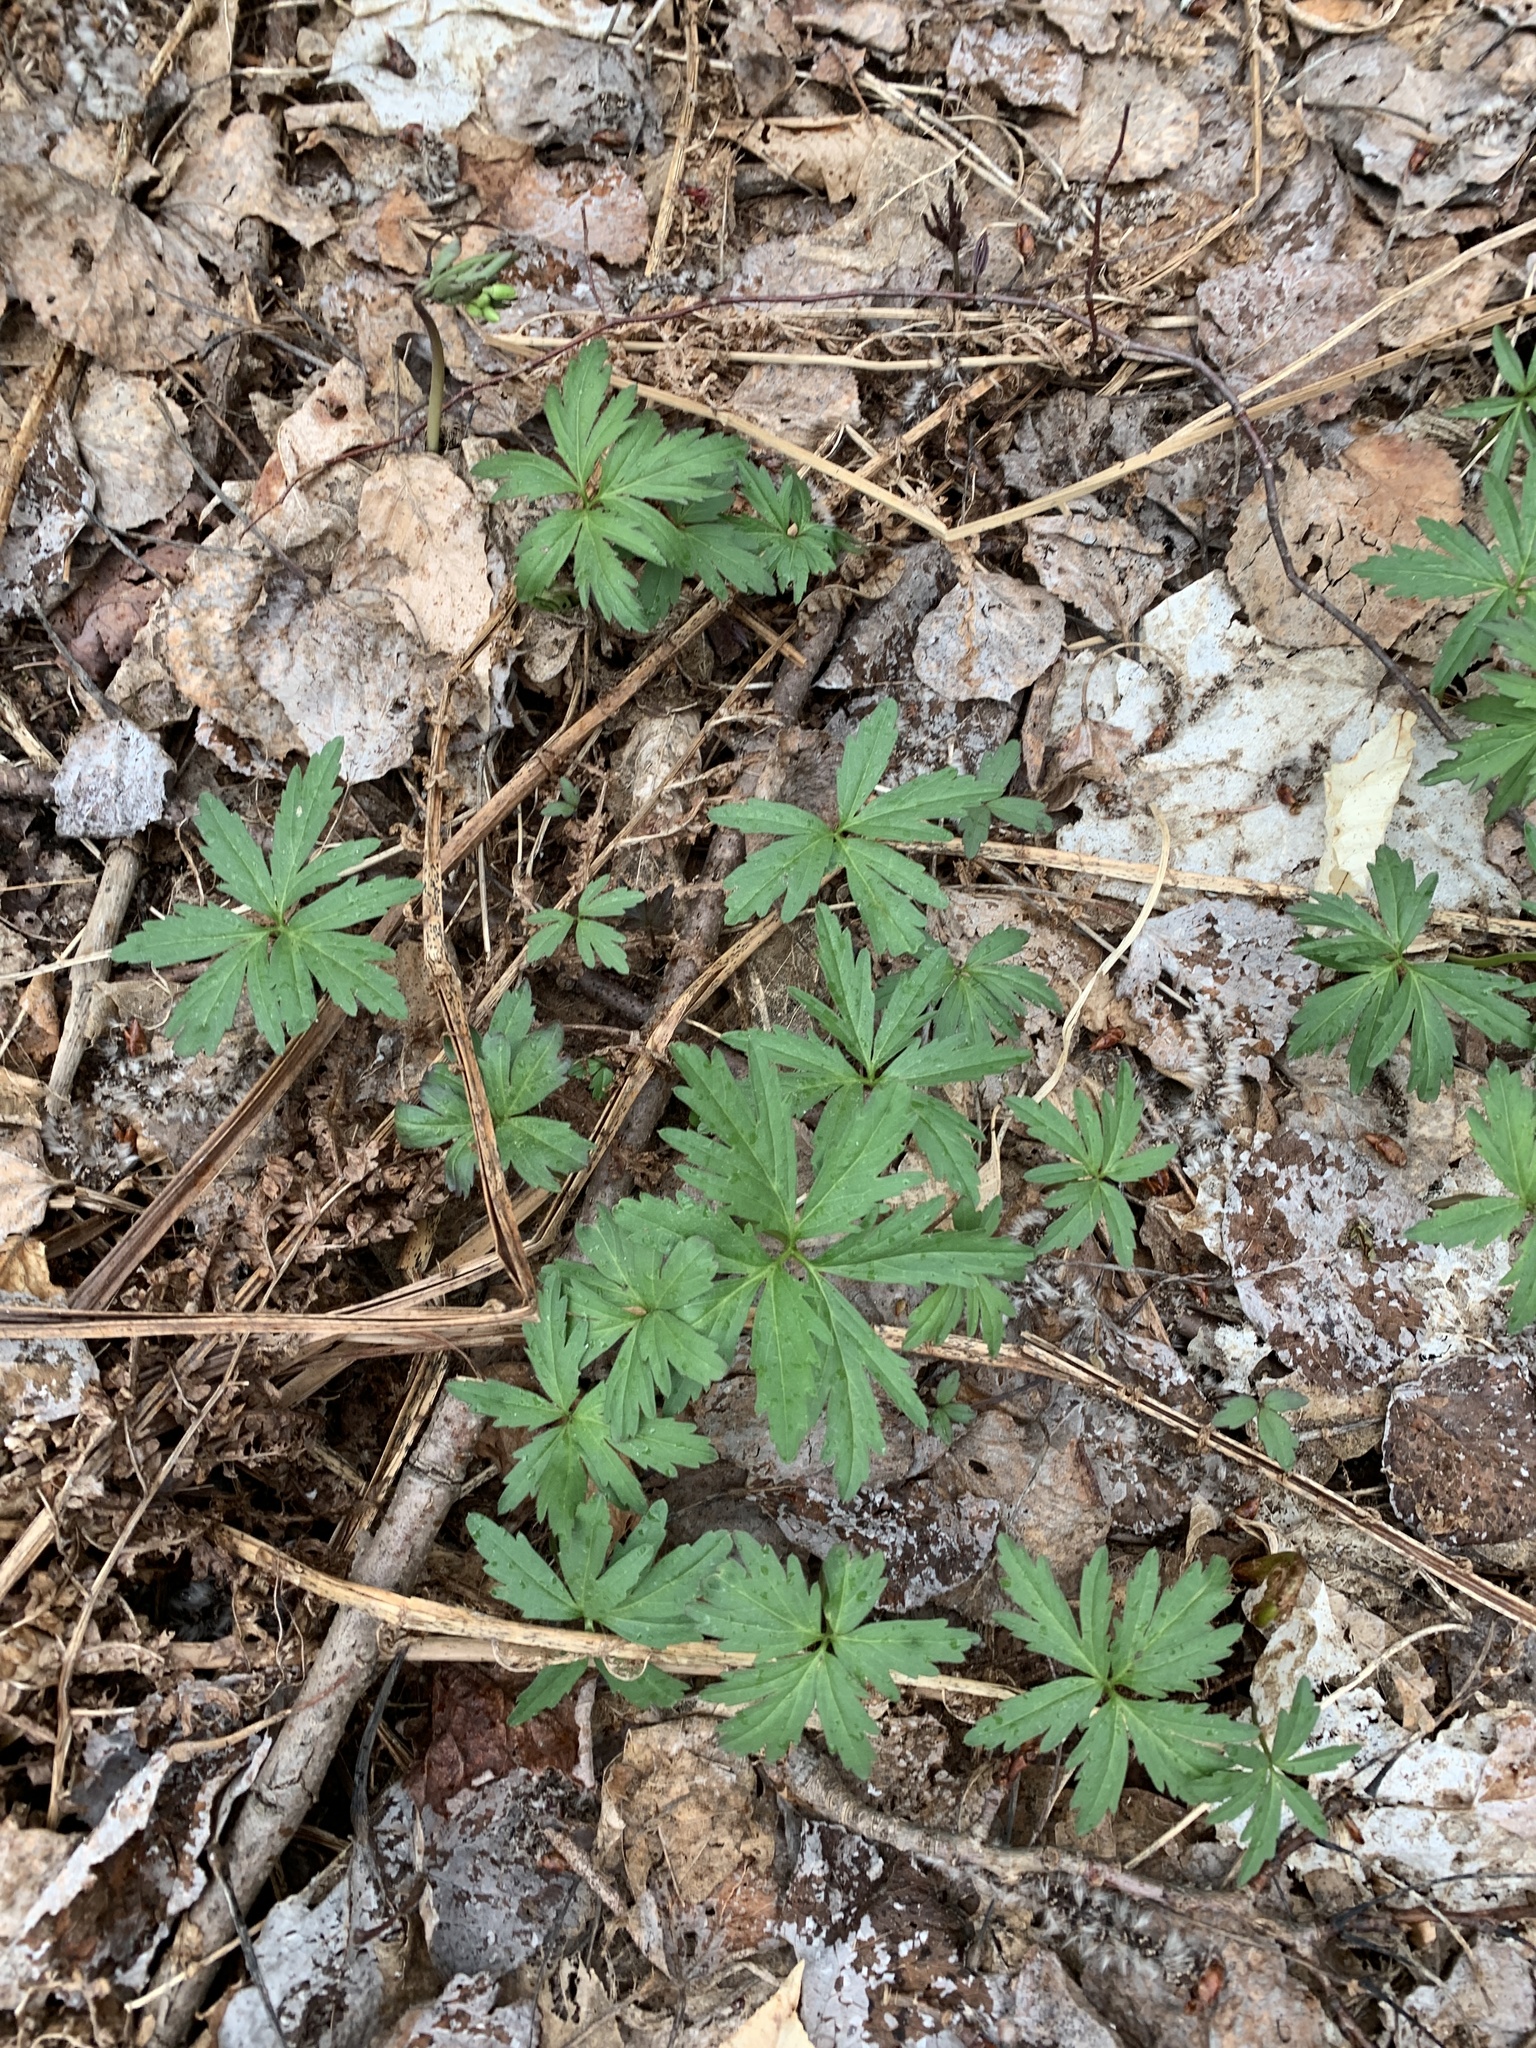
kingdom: Plantae
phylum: Tracheophyta
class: Magnoliopsida
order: Brassicales
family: Brassicaceae
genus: Cardamine
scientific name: Cardamine concatenata
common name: Cut-leaf toothcup
